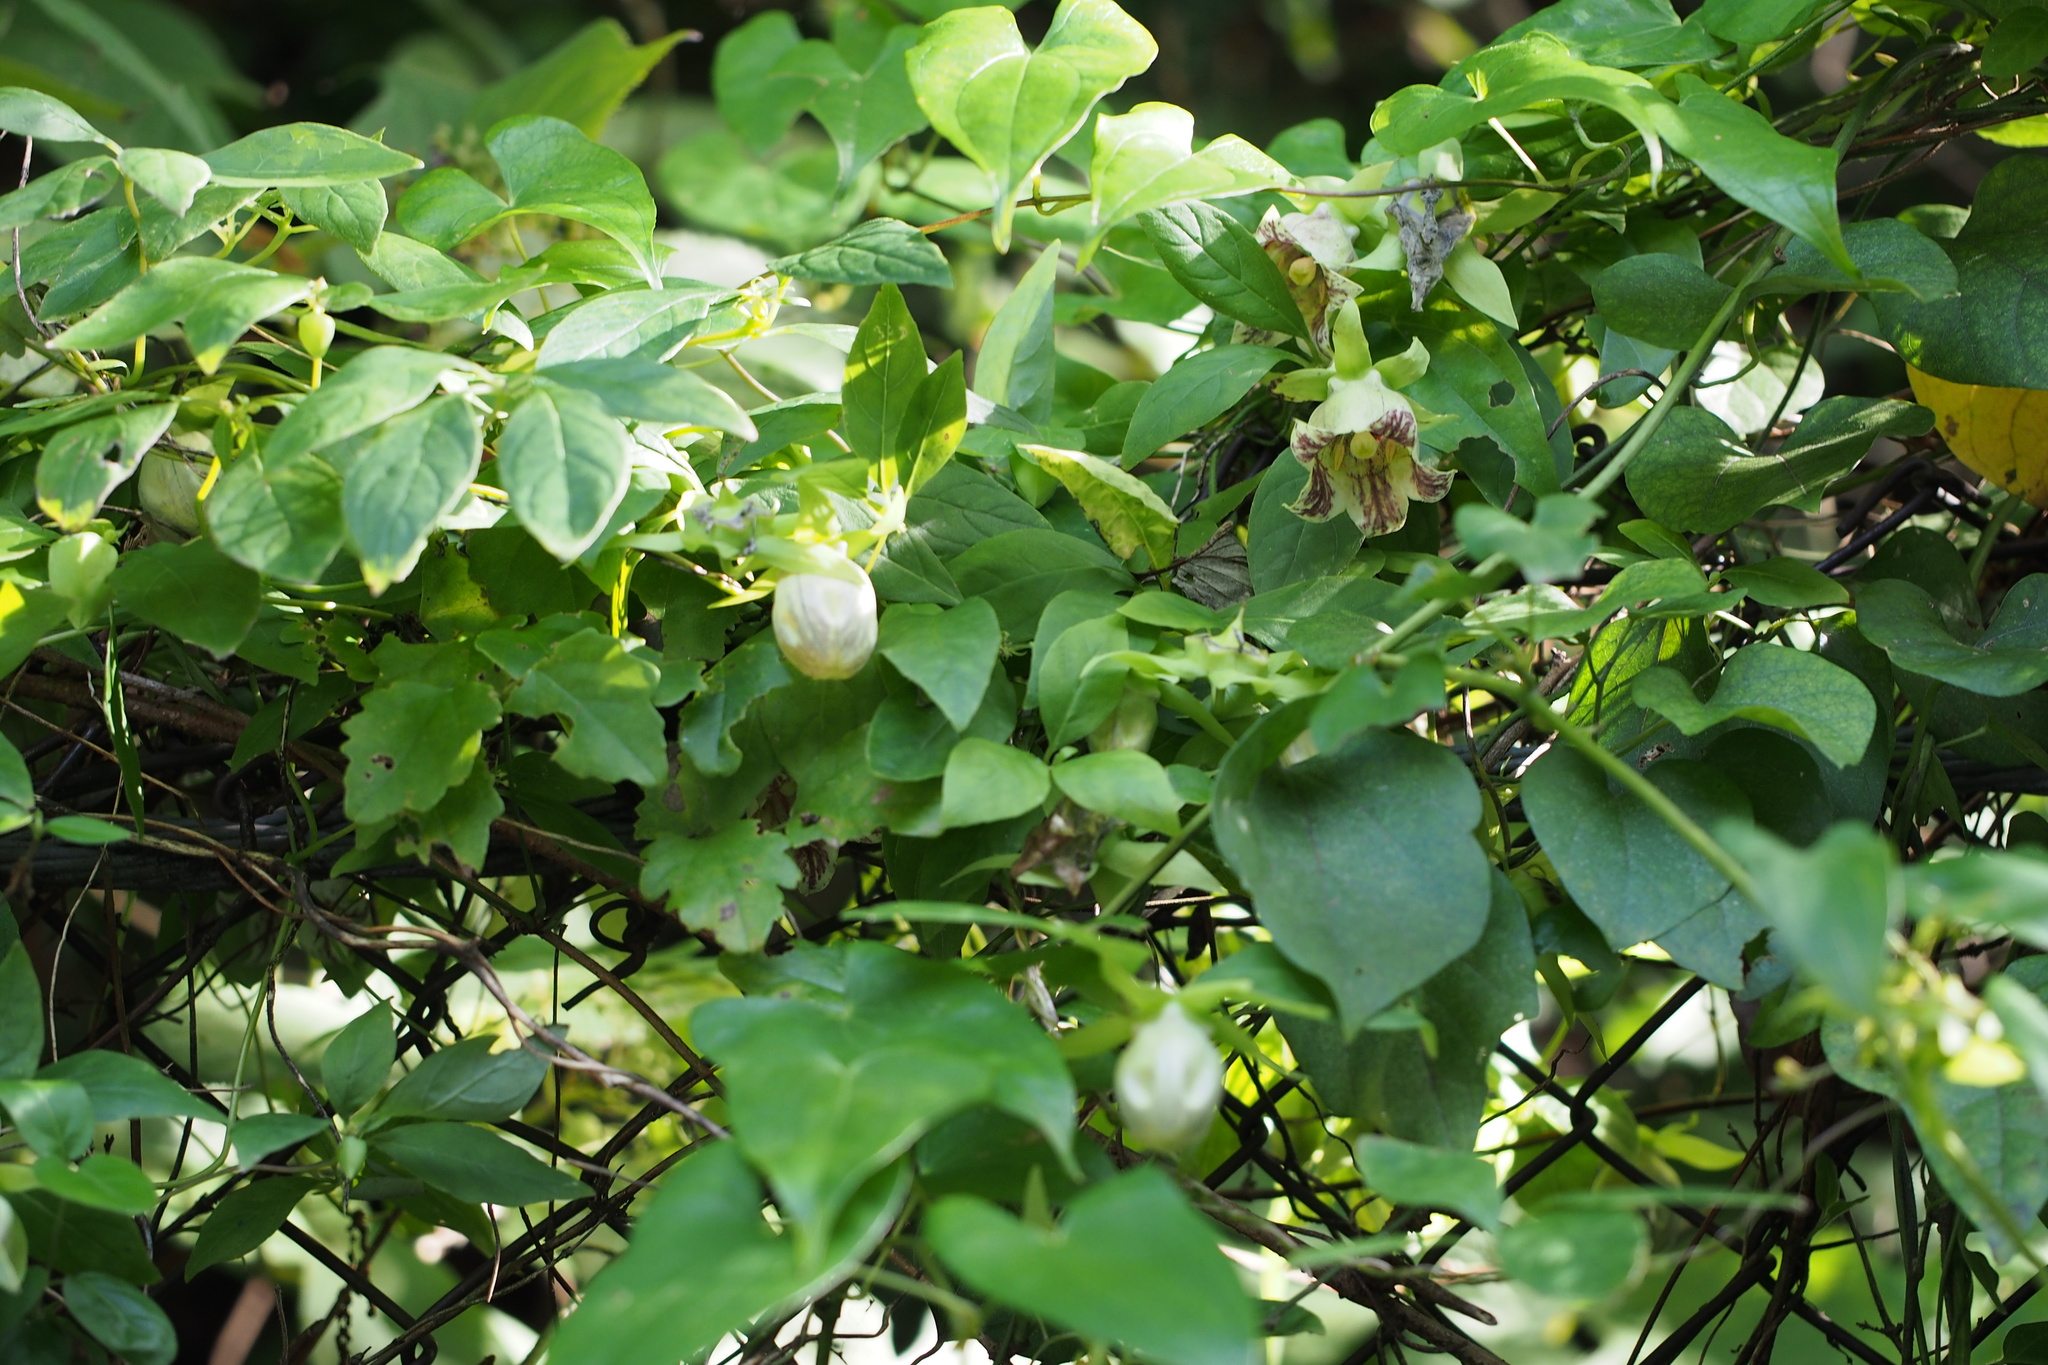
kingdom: Plantae
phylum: Tracheophyta
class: Magnoliopsida
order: Asterales
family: Campanulaceae
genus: Codonopsis
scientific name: Codonopsis lanceolata
